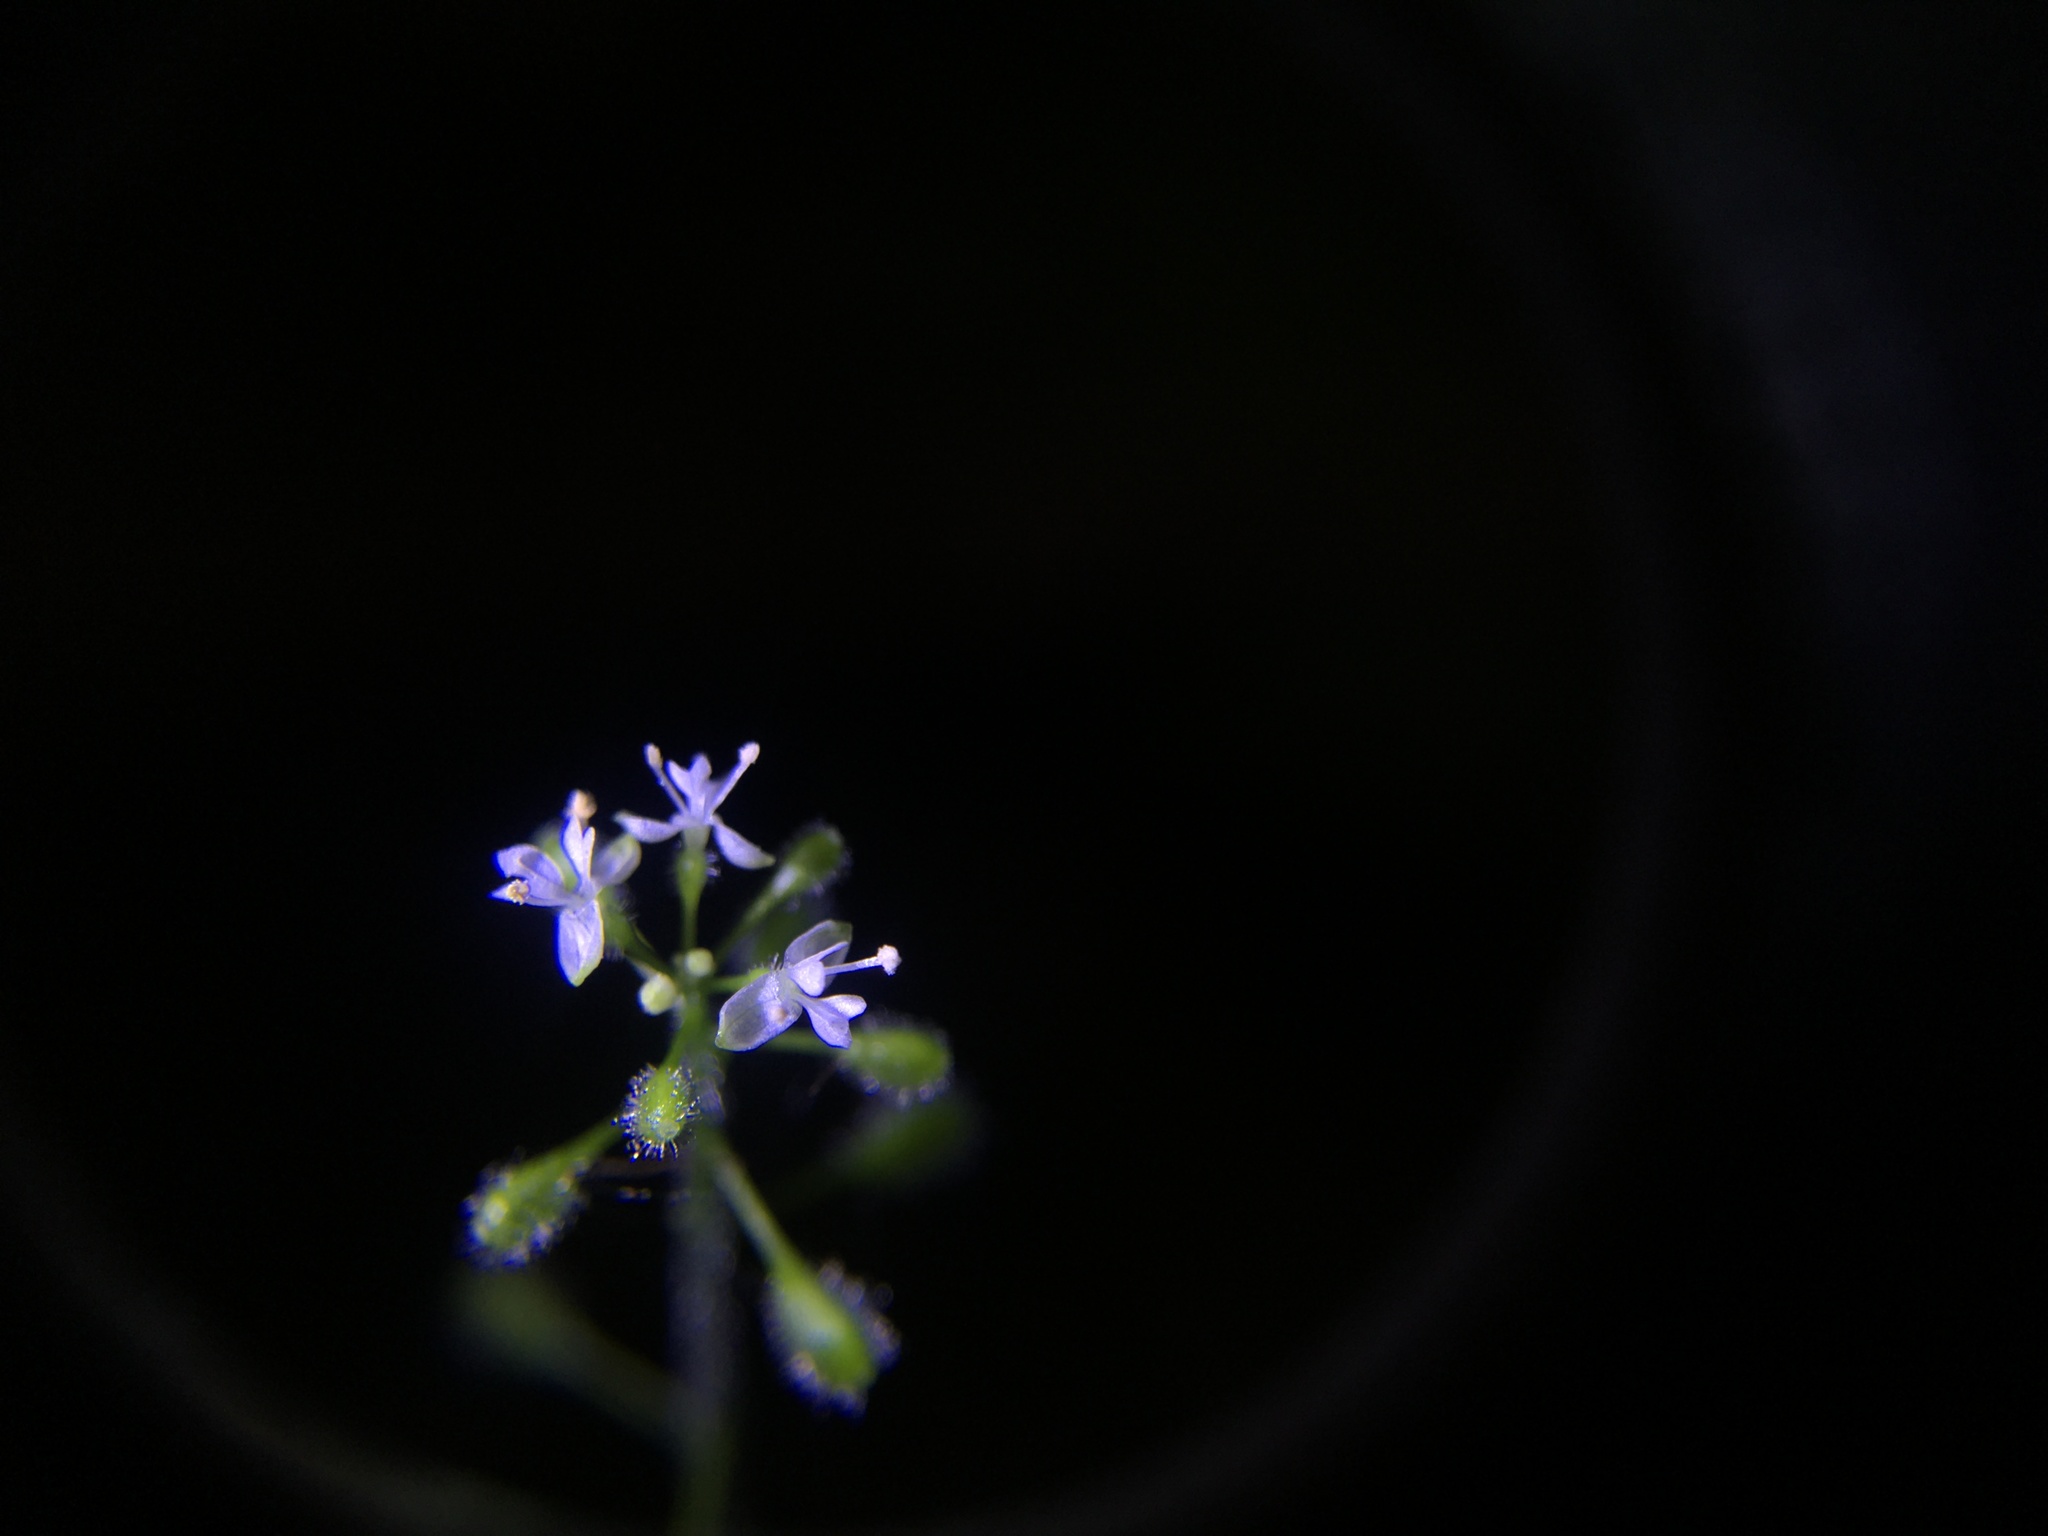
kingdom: Plantae
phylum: Tracheophyta
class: Magnoliopsida
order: Myrtales
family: Onagraceae
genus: Circaea
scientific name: Circaea alpina
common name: Alpine enchanter's-nightshade
